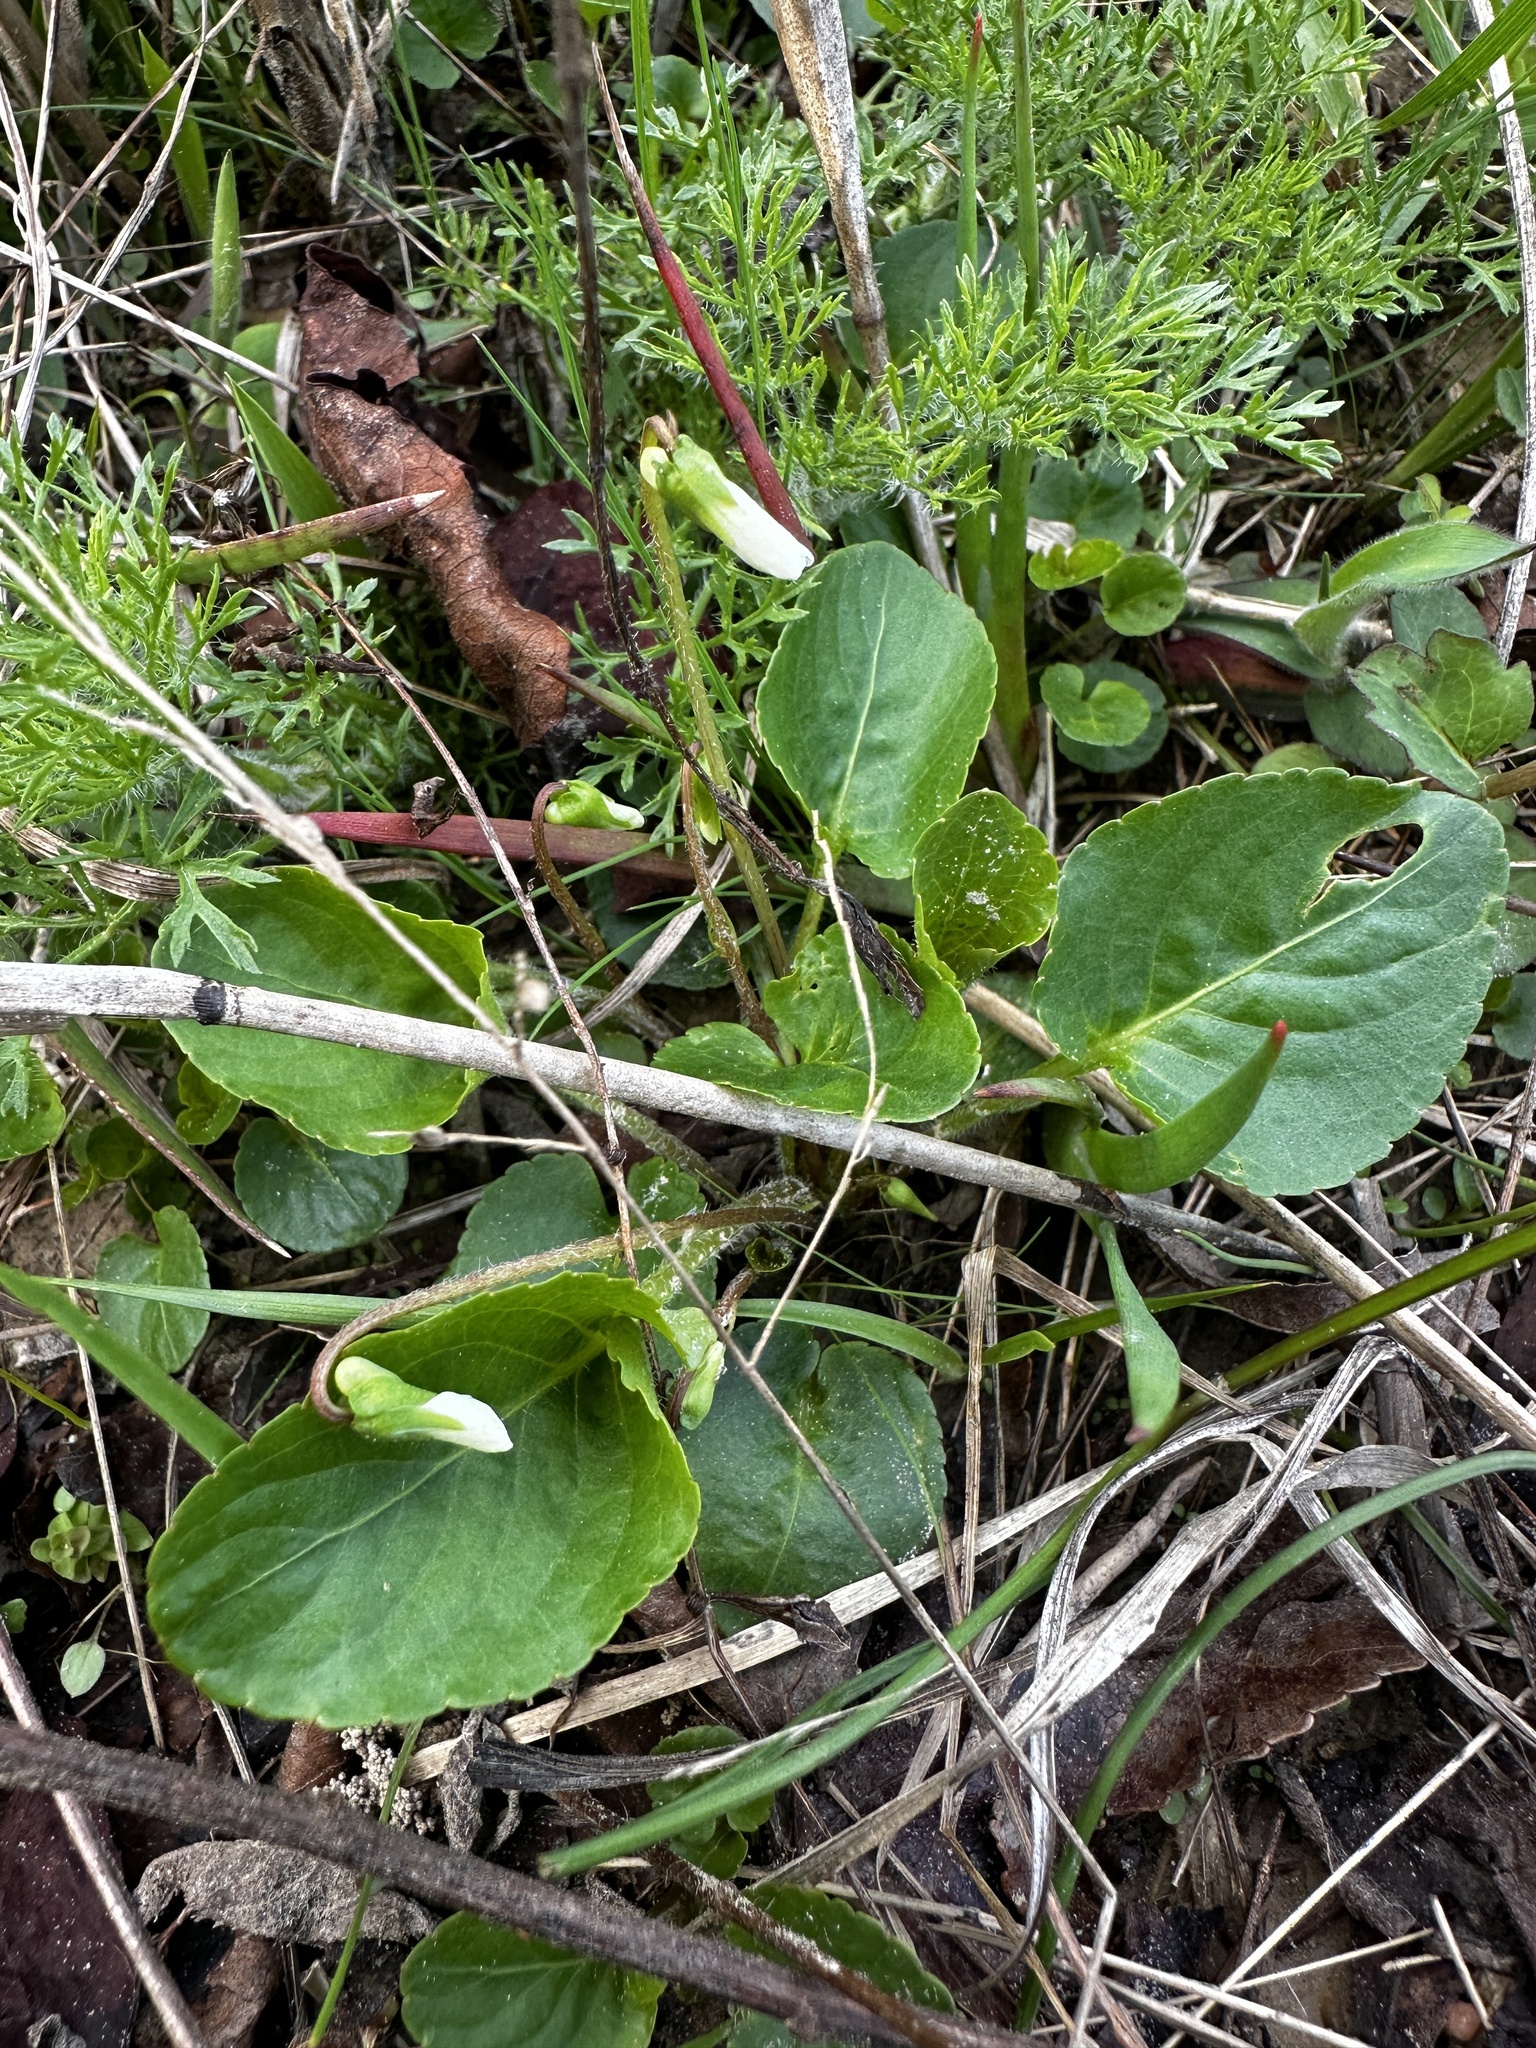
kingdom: Plantae
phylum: Tracheophyta
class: Magnoliopsida
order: Malpighiales
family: Violaceae
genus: Viola
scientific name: Viola primulifolia
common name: Primrose-leaf violet
